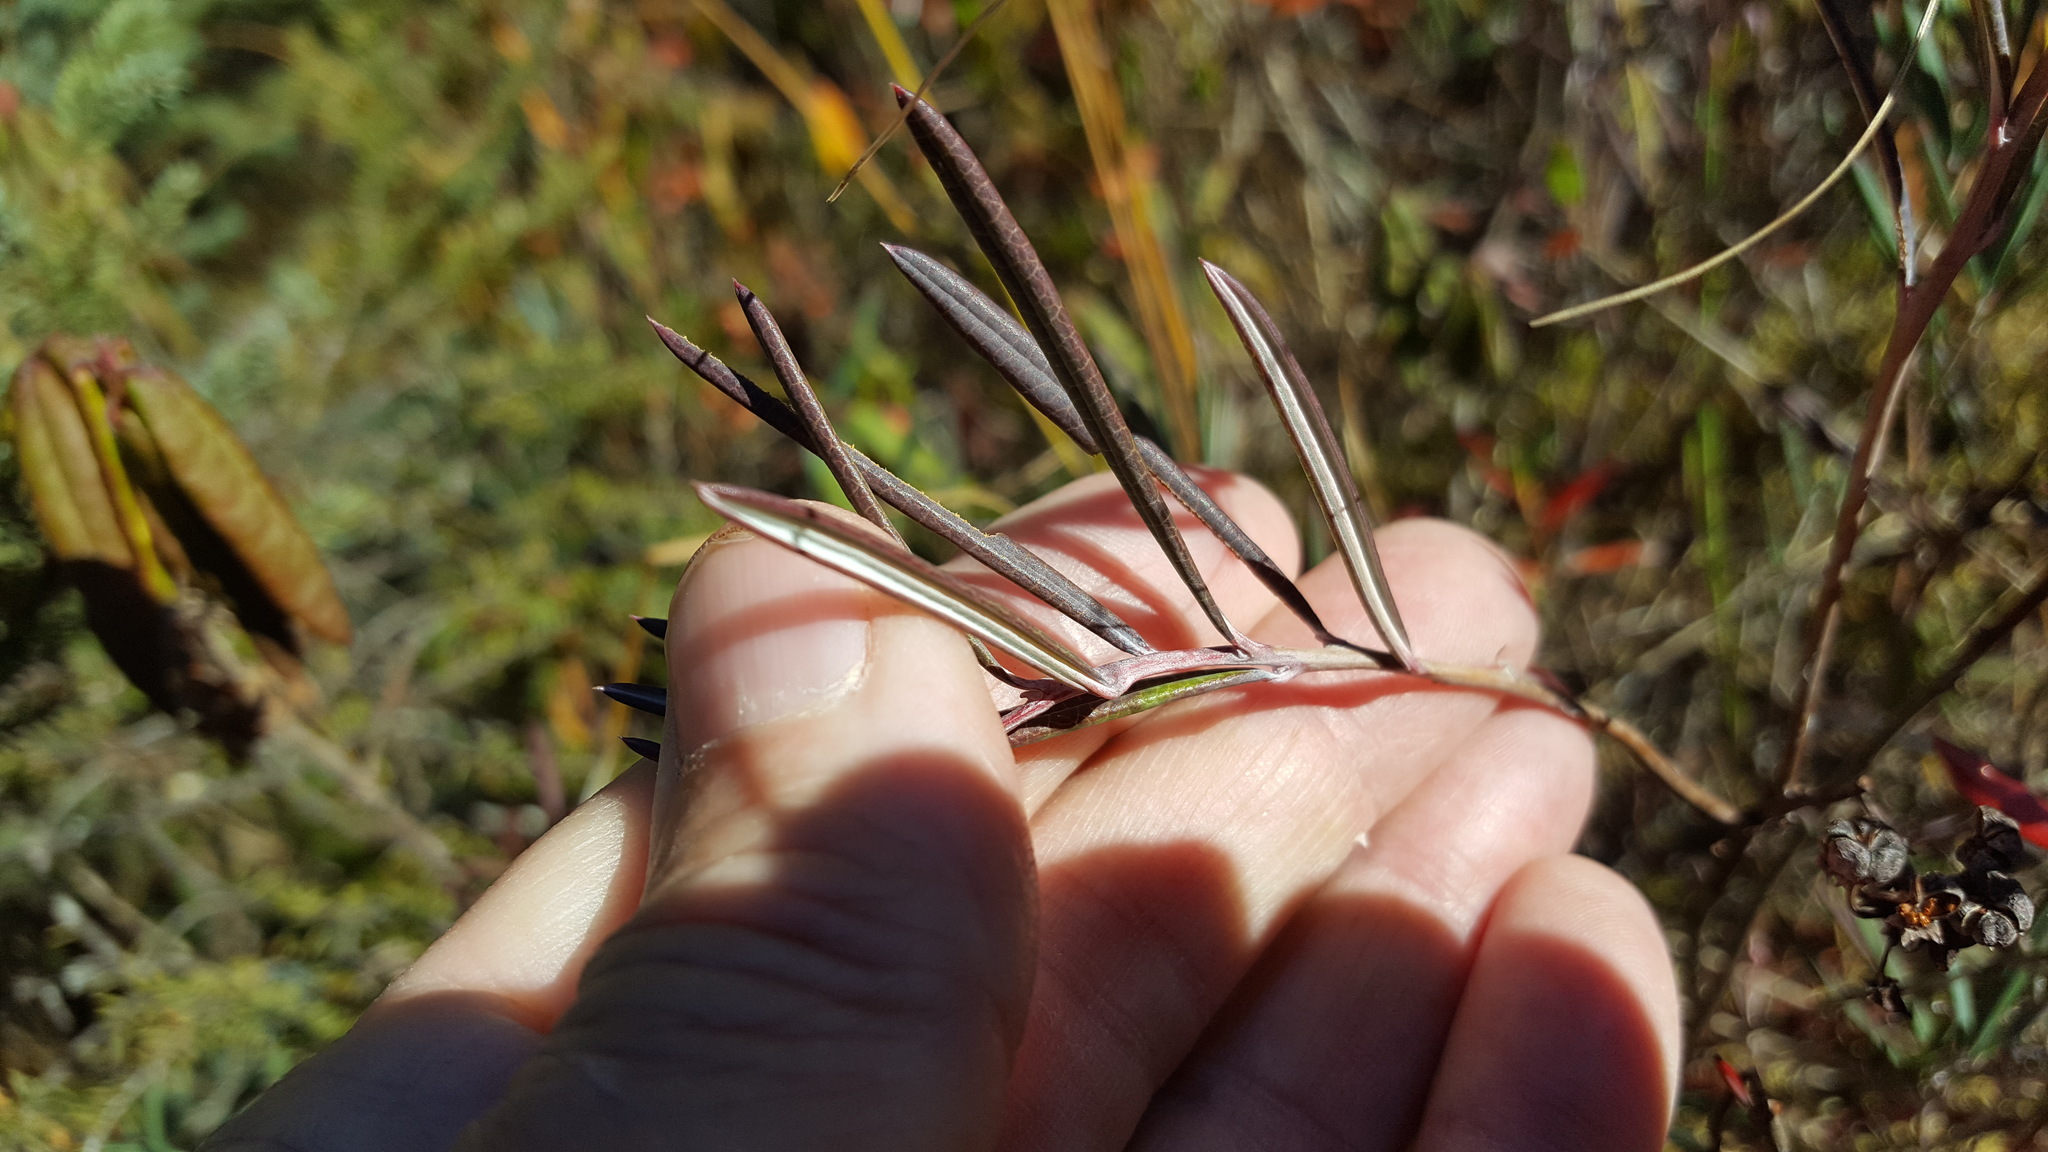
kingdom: Plantae
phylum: Tracheophyta
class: Magnoliopsida
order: Ericales
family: Ericaceae
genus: Andromeda
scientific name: Andromeda polifolia
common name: Bog-rosemary
